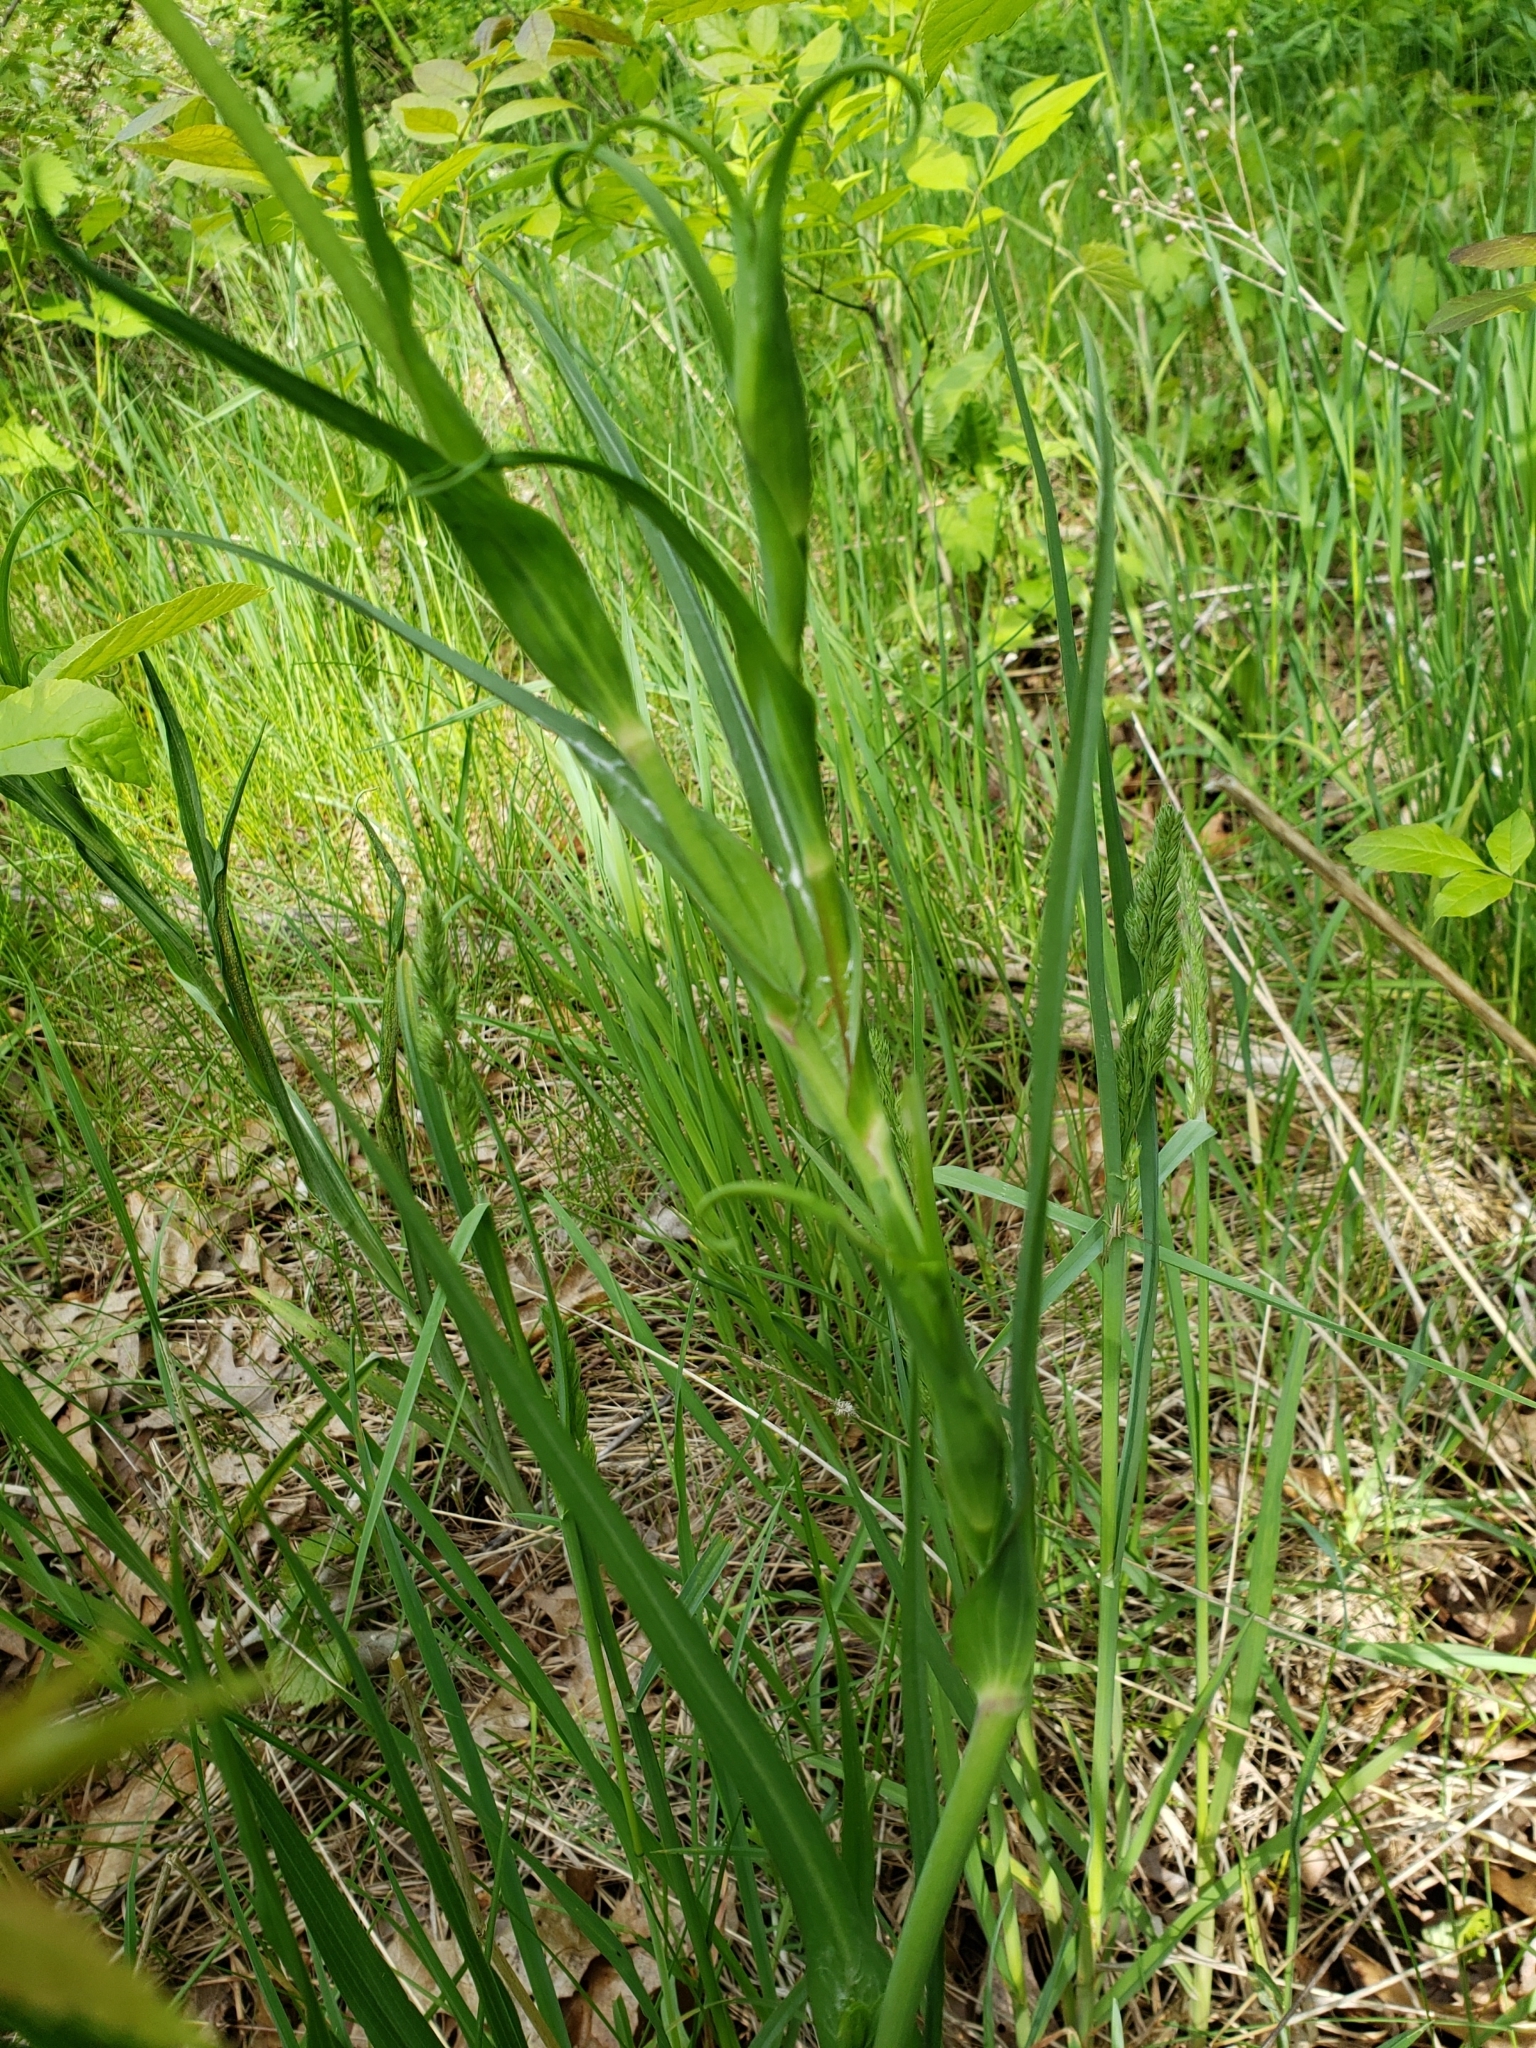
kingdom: Plantae
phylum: Tracheophyta
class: Magnoliopsida
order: Asterales
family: Asteraceae
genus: Tragopogon
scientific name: Tragopogon pratensis
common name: Goat's-beard
